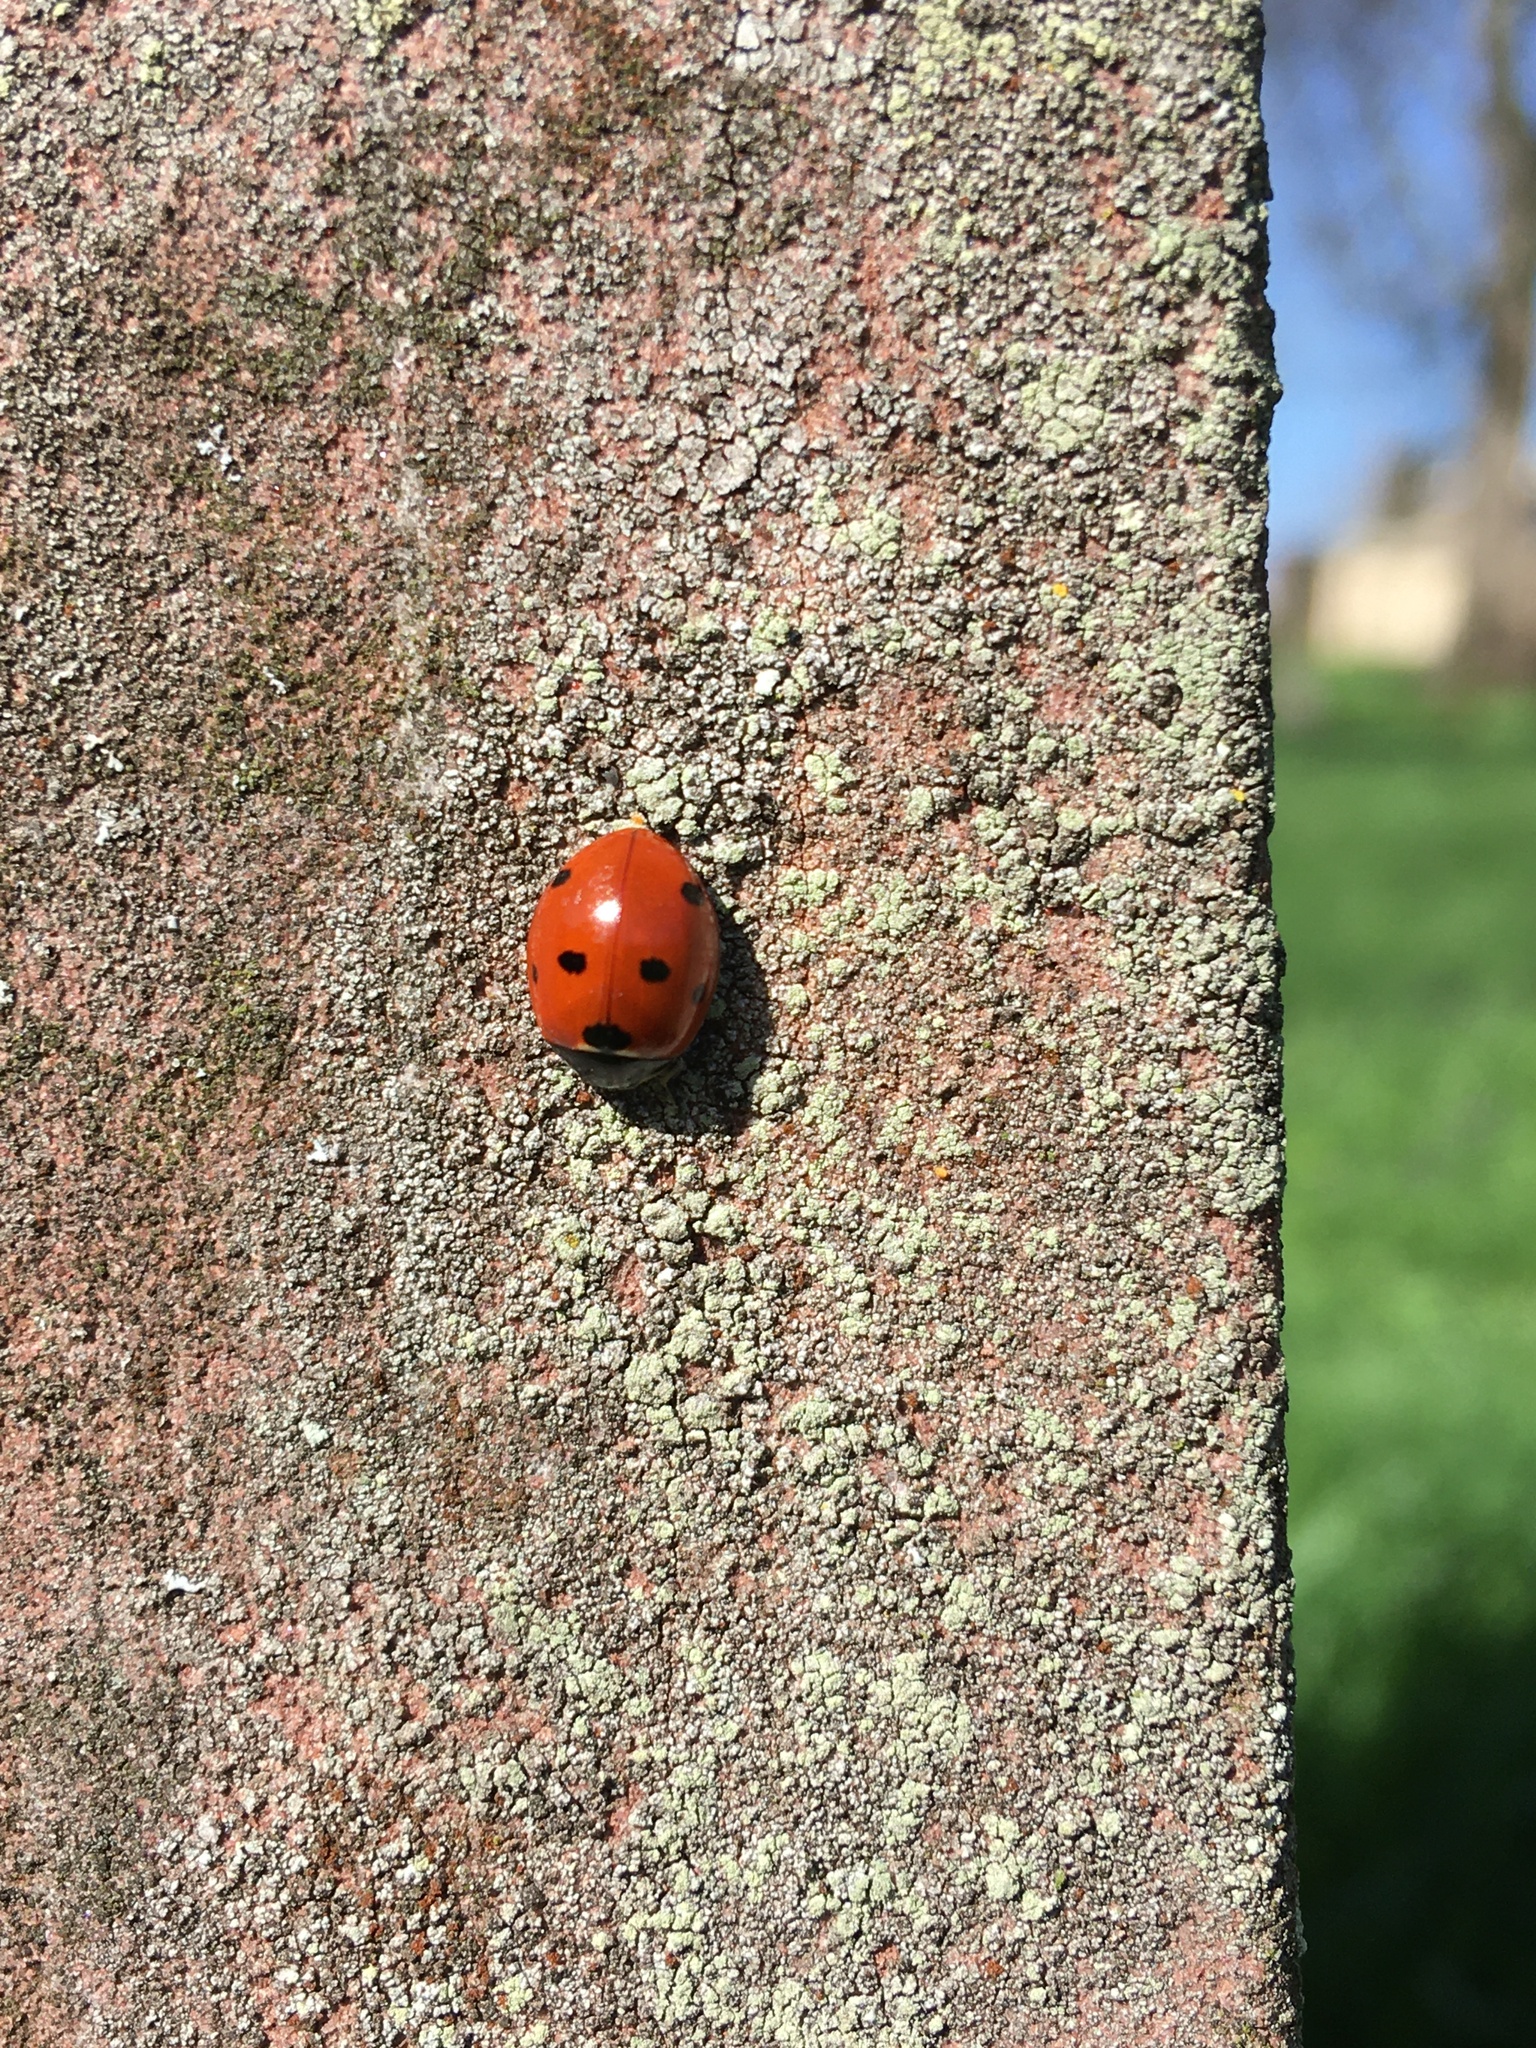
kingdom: Animalia
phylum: Arthropoda
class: Insecta
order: Coleoptera
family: Coccinellidae
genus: Coccinella
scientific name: Coccinella septempunctata
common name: Sevenspotted lady beetle
